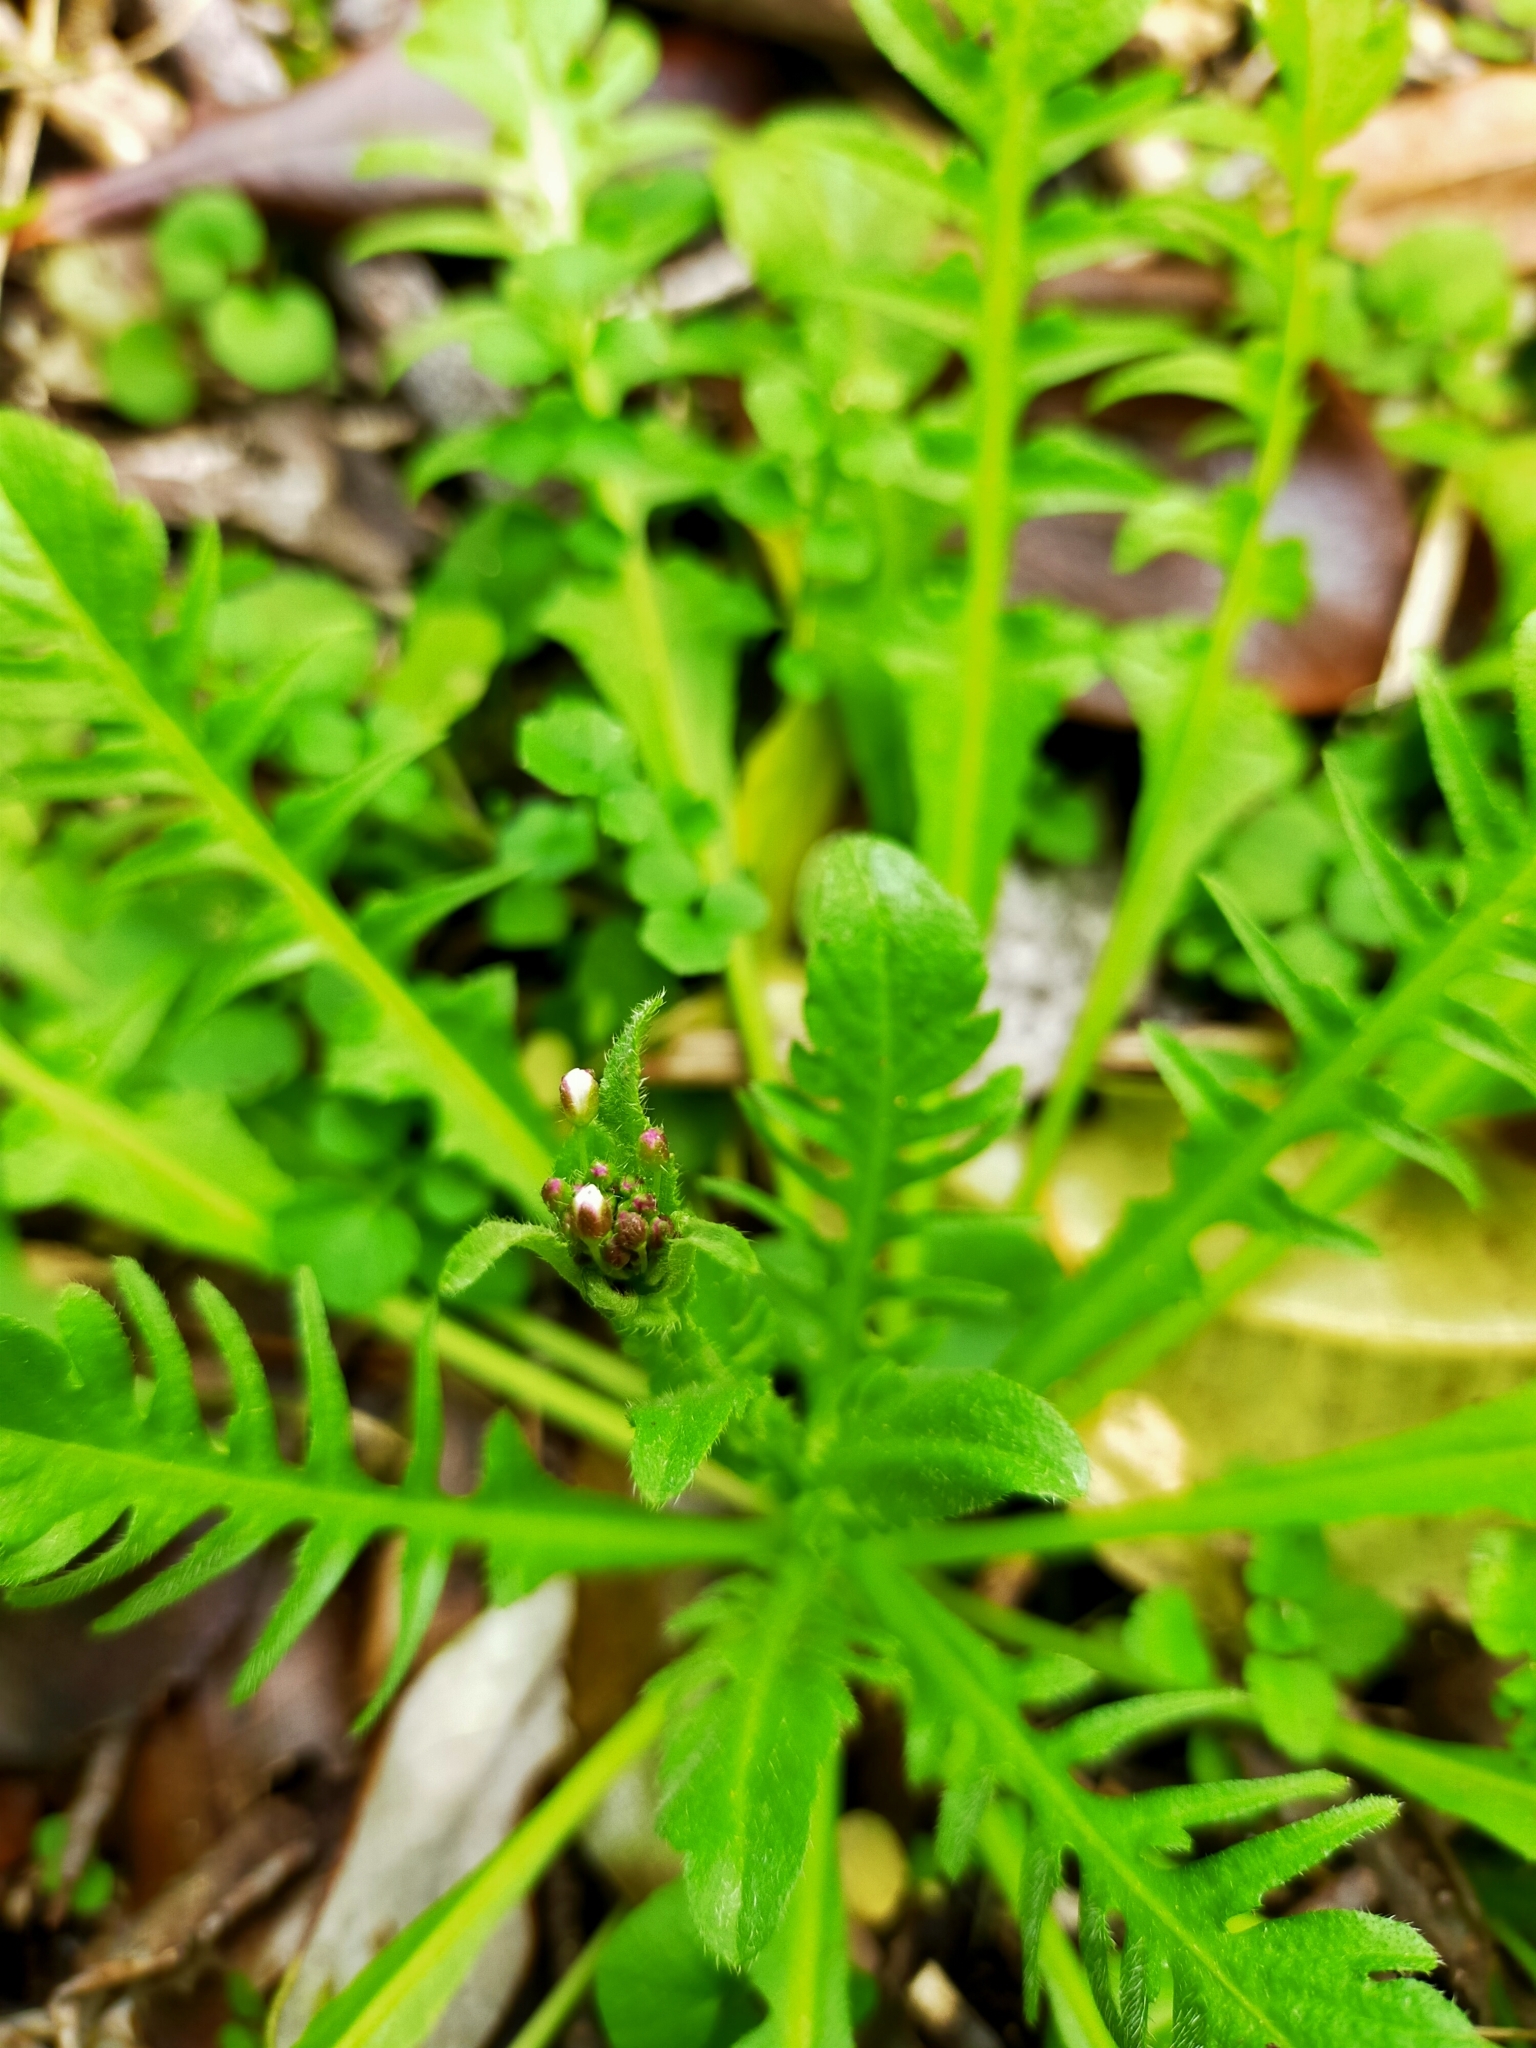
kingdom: Plantae
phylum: Tracheophyta
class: Magnoliopsida
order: Brassicales
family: Brassicaceae
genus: Diplotaxis
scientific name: Diplotaxis muralis
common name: Annual wall-rocket
